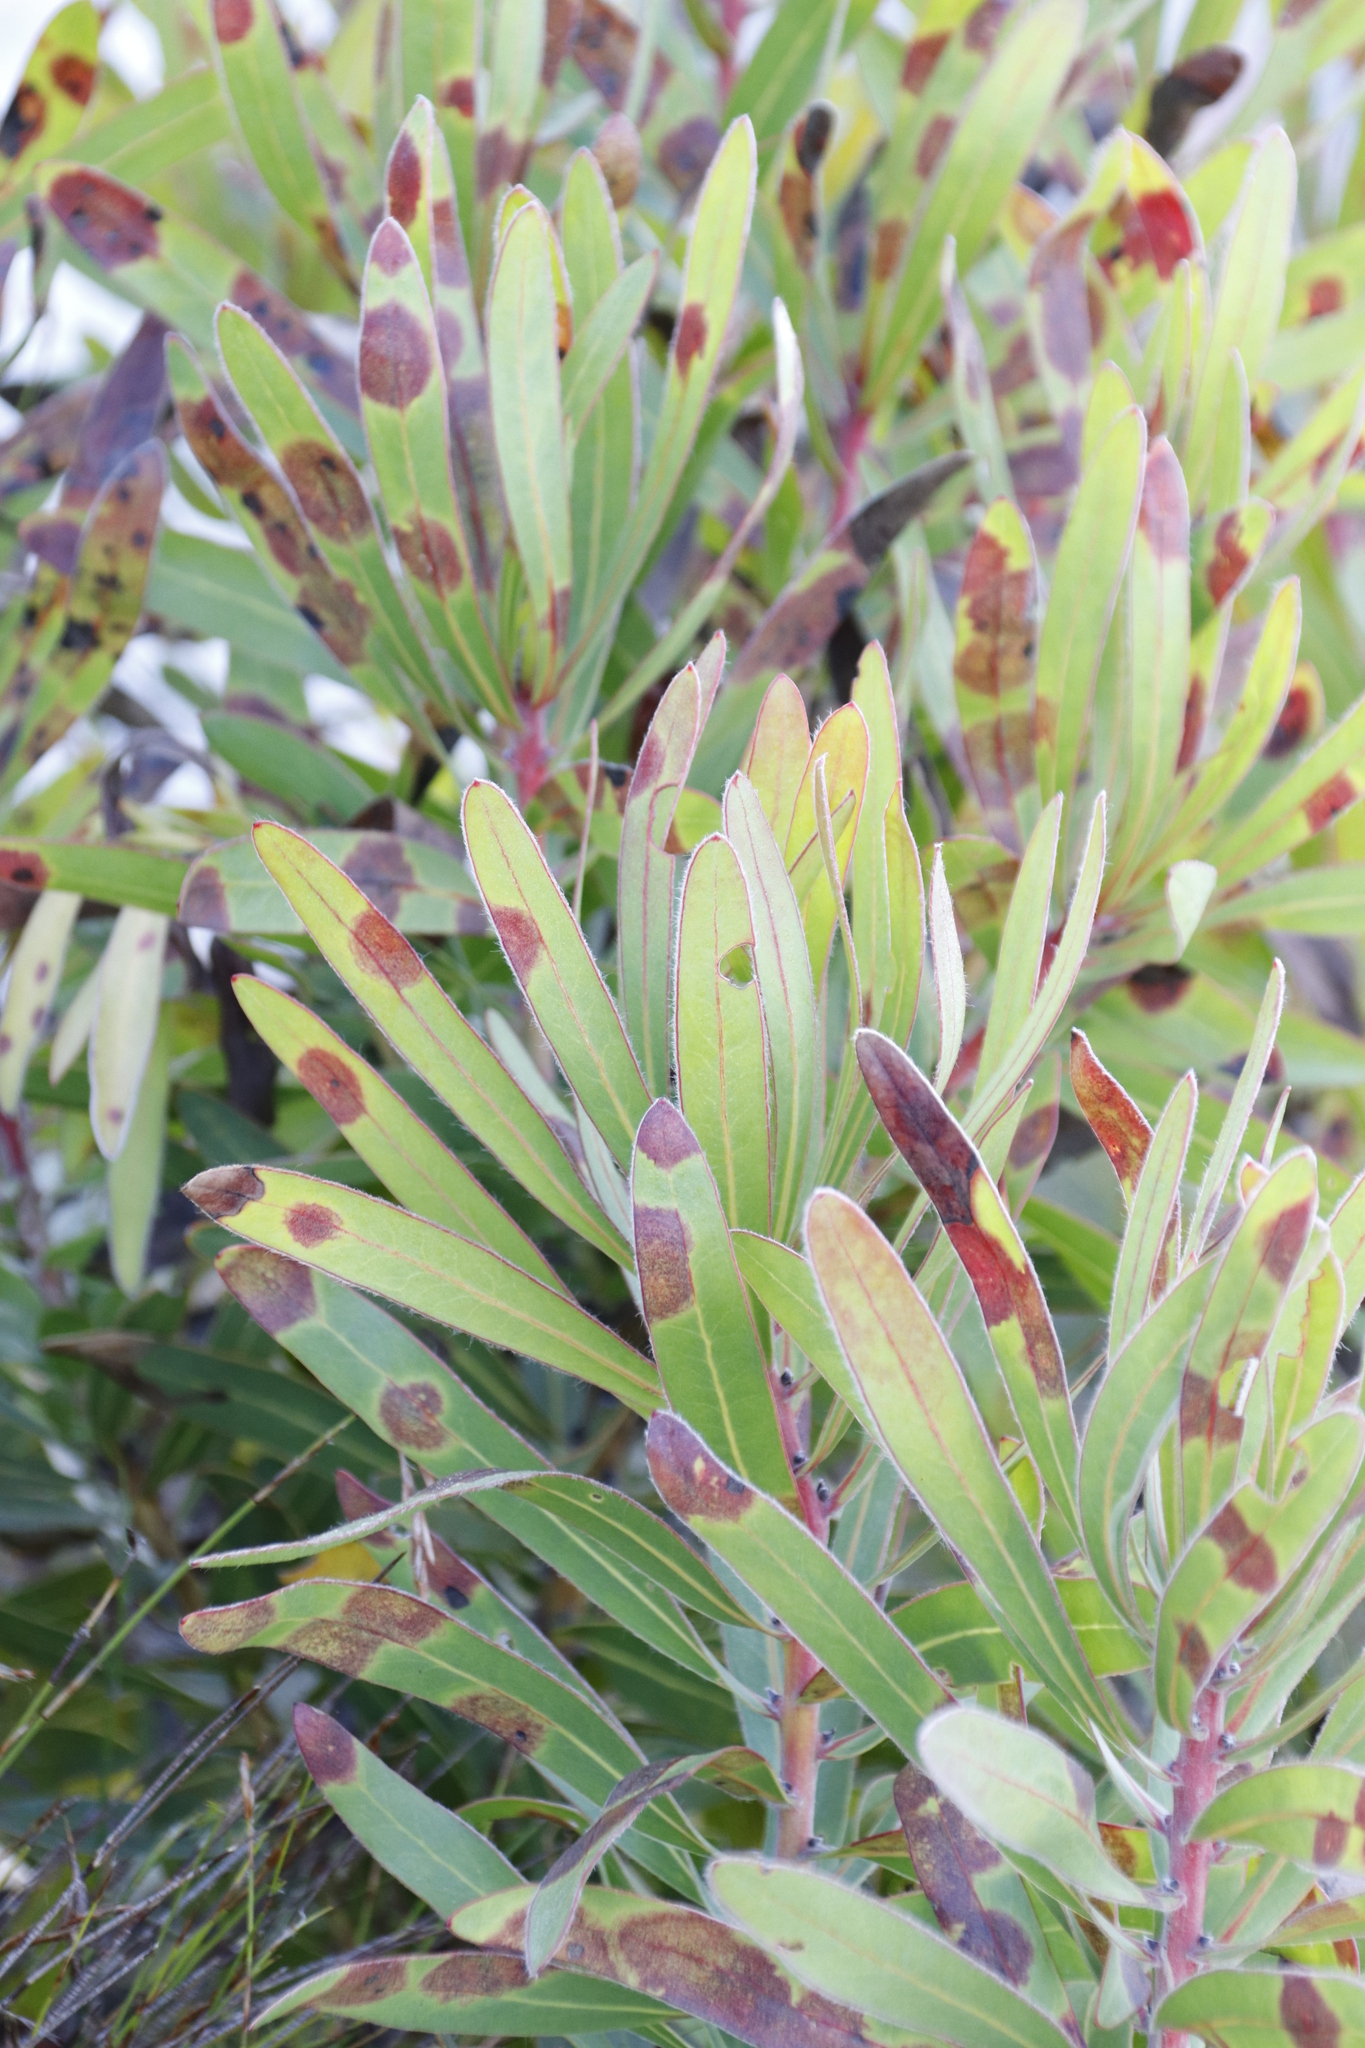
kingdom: Plantae
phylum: Tracheophyta
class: Magnoliopsida
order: Proteales
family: Proteaceae
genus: Protea
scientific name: Protea lepidocarpodendron
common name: Black-bearded protea
